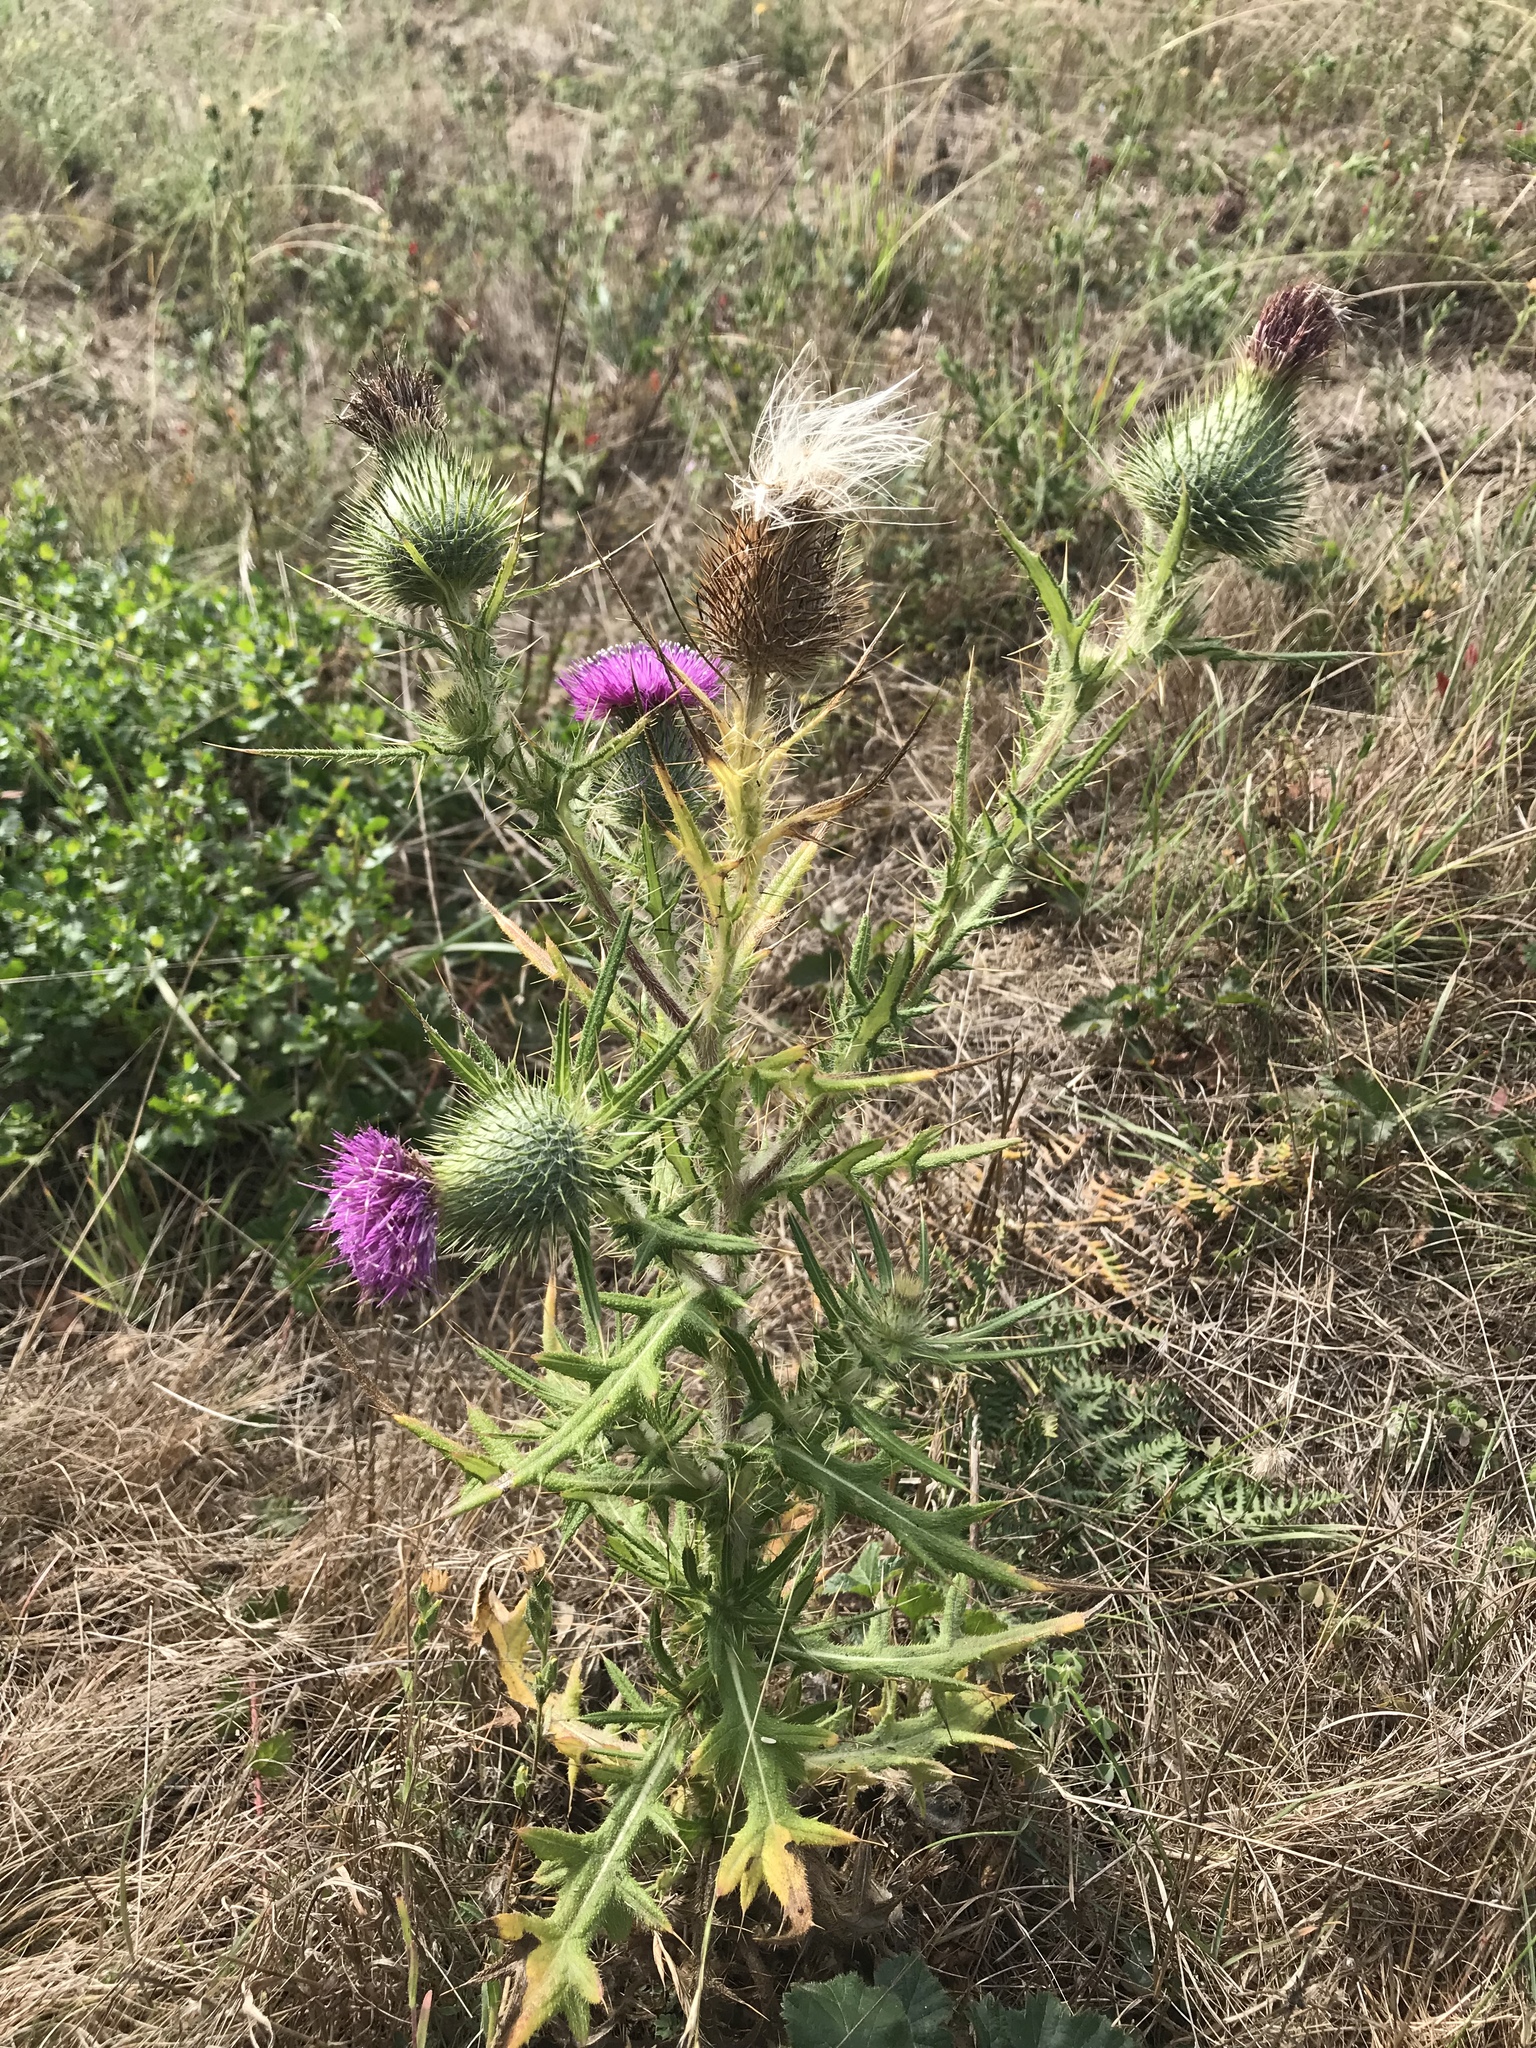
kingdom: Plantae
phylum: Tracheophyta
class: Magnoliopsida
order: Asterales
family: Asteraceae
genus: Cirsium
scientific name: Cirsium vulgare
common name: Bull thistle
